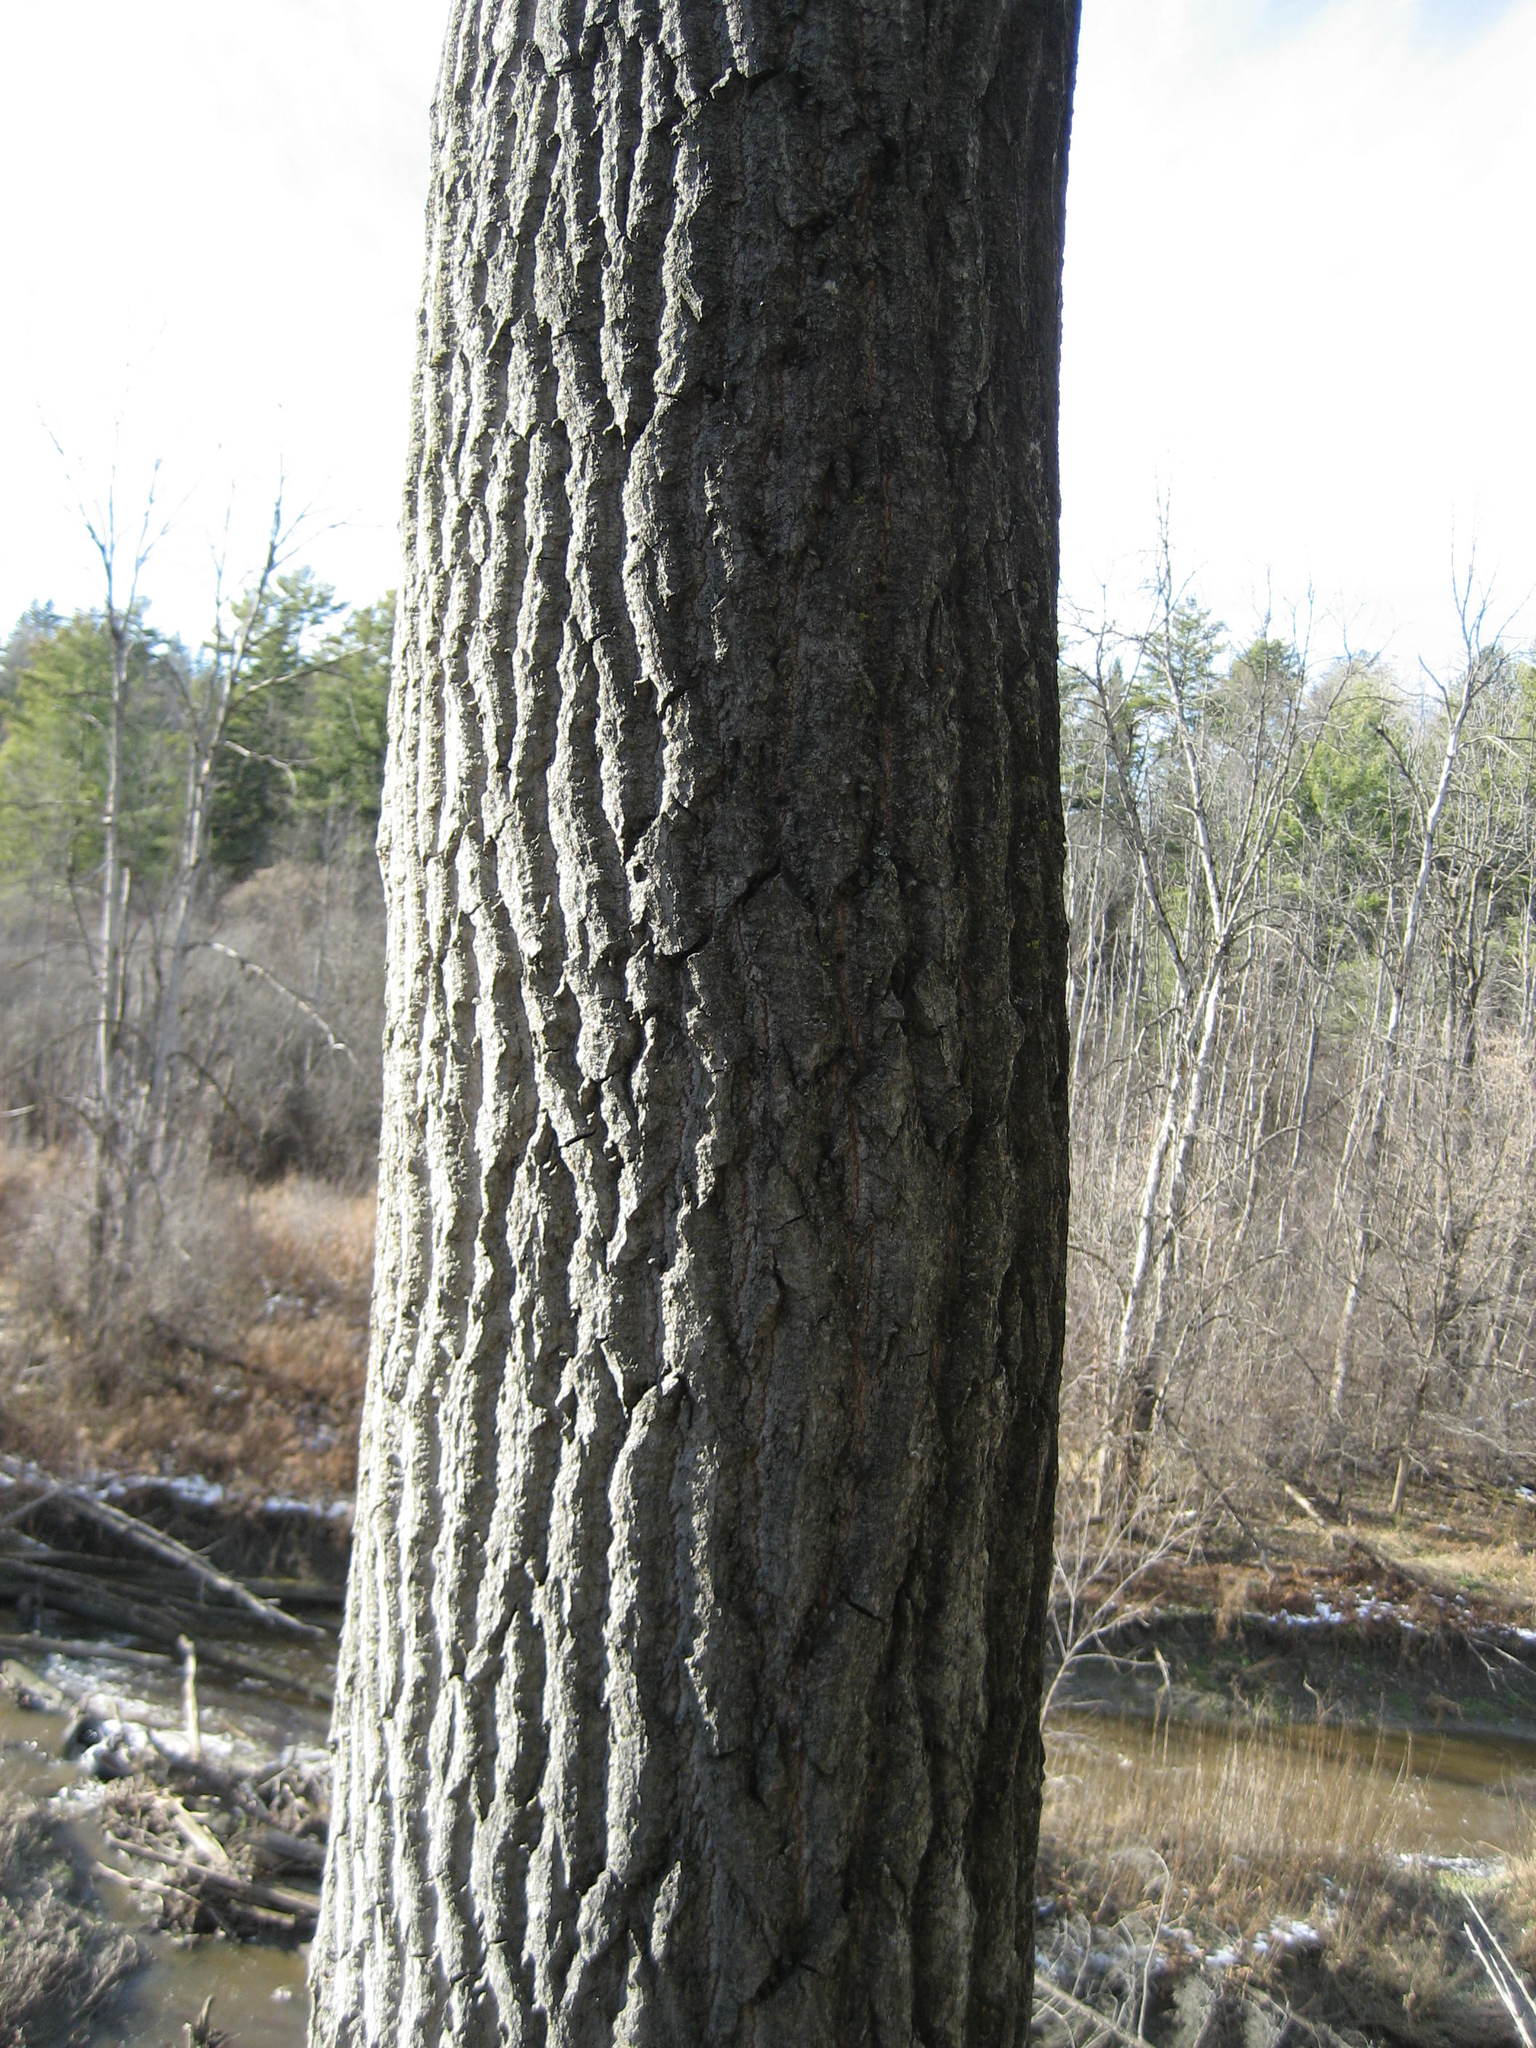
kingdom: Plantae
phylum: Tracheophyta
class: Magnoliopsida
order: Malpighiales
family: Salicaceae
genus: Populus
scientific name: Populus grandidentata
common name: Bigtooth aspen
